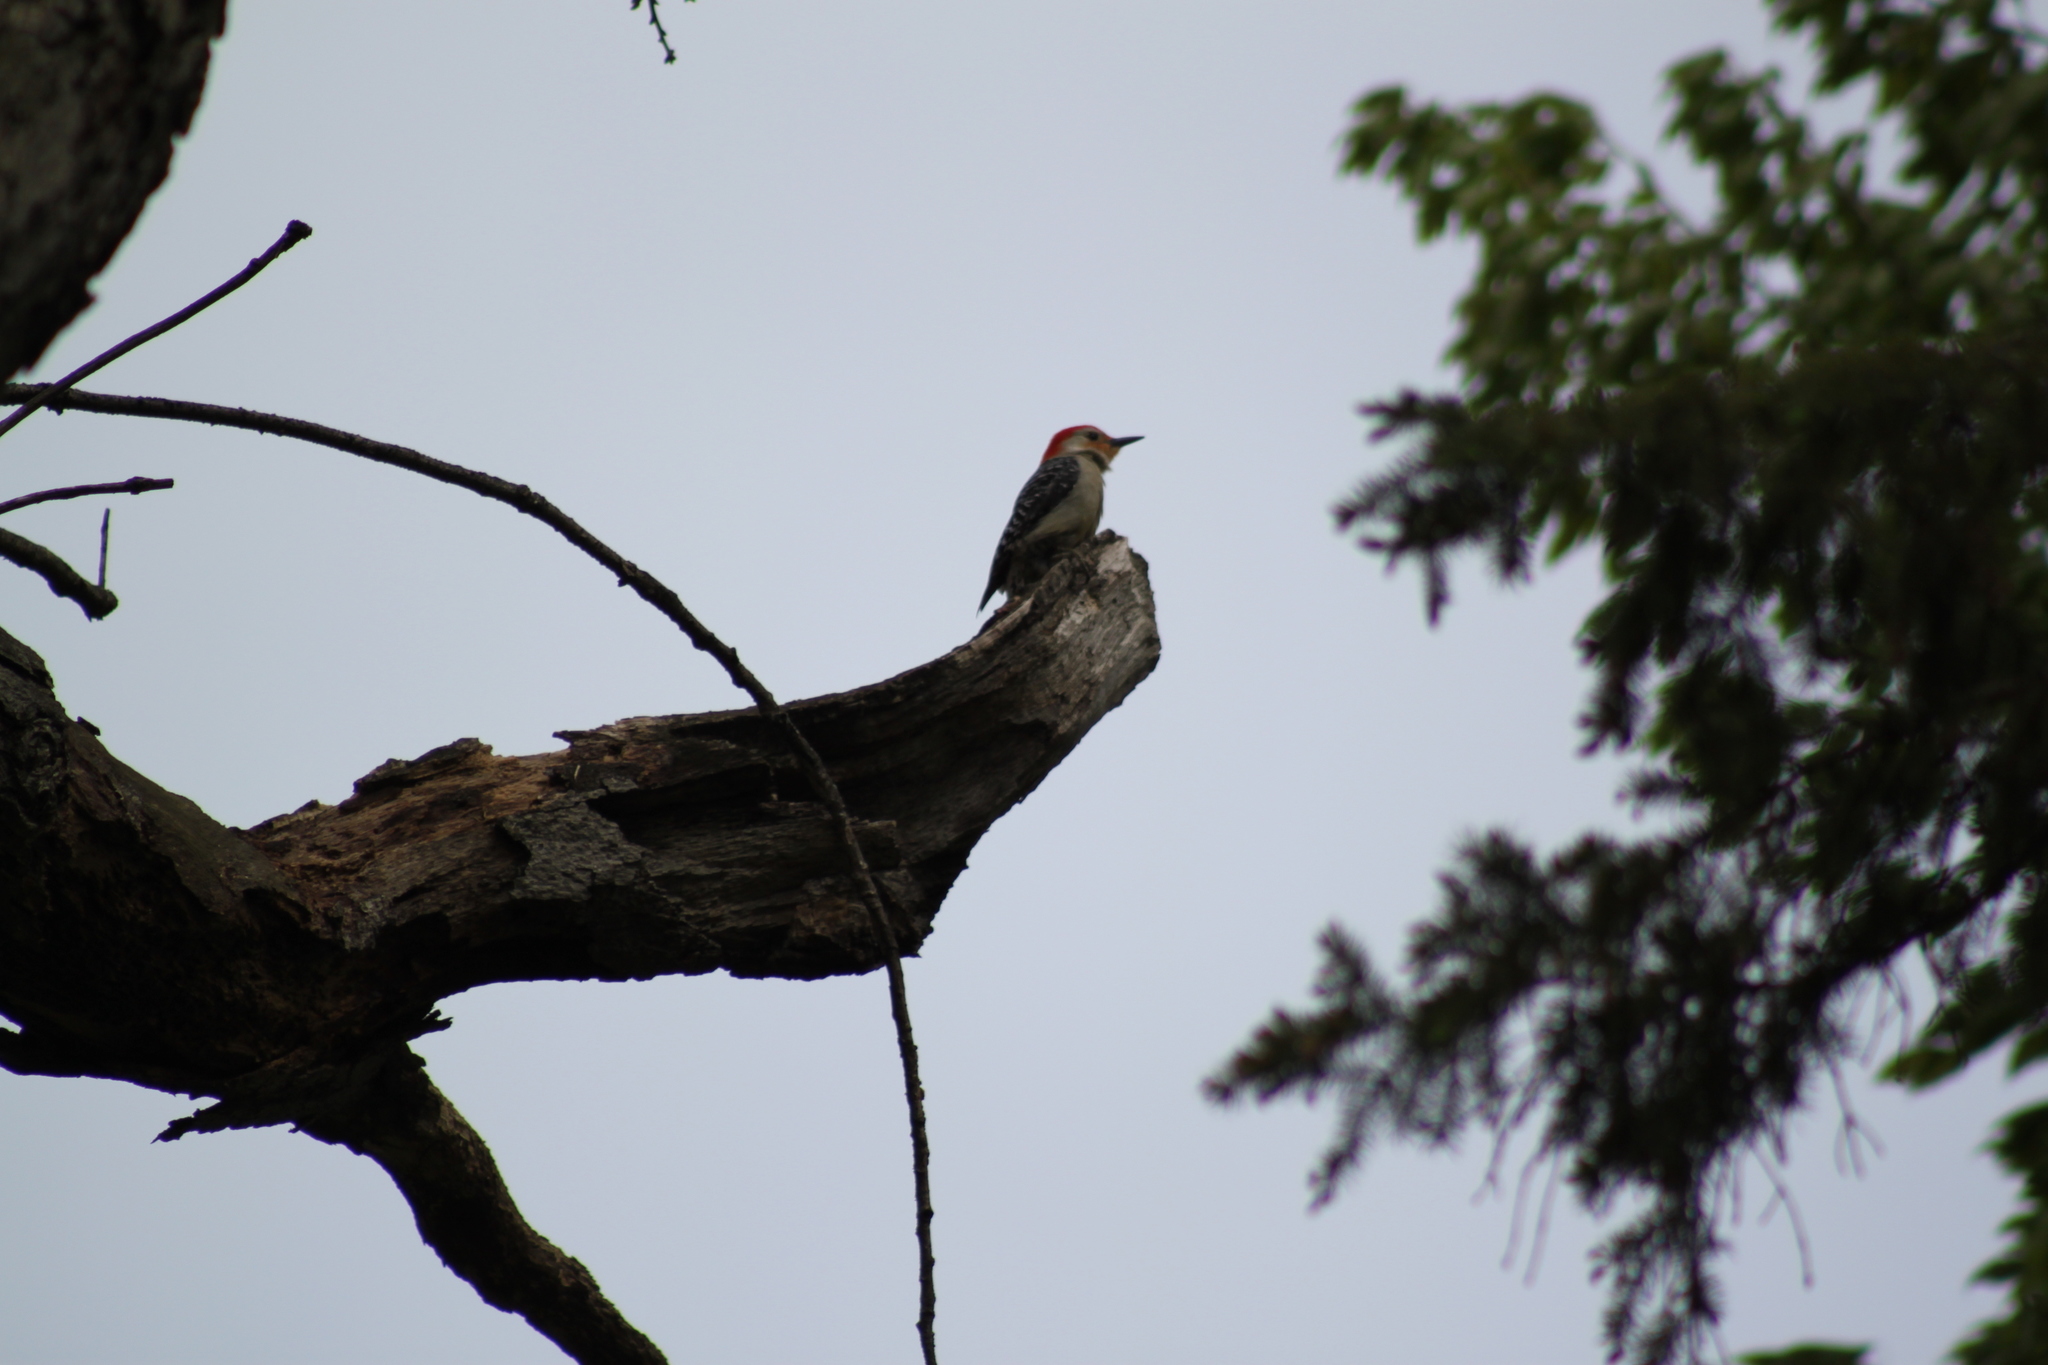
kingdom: Animalia
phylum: Chordata
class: Aves
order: Piciformes
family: Picidae
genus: Melanerpes
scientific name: Melanerpes carolinus
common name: Red-bellied woodpecker
